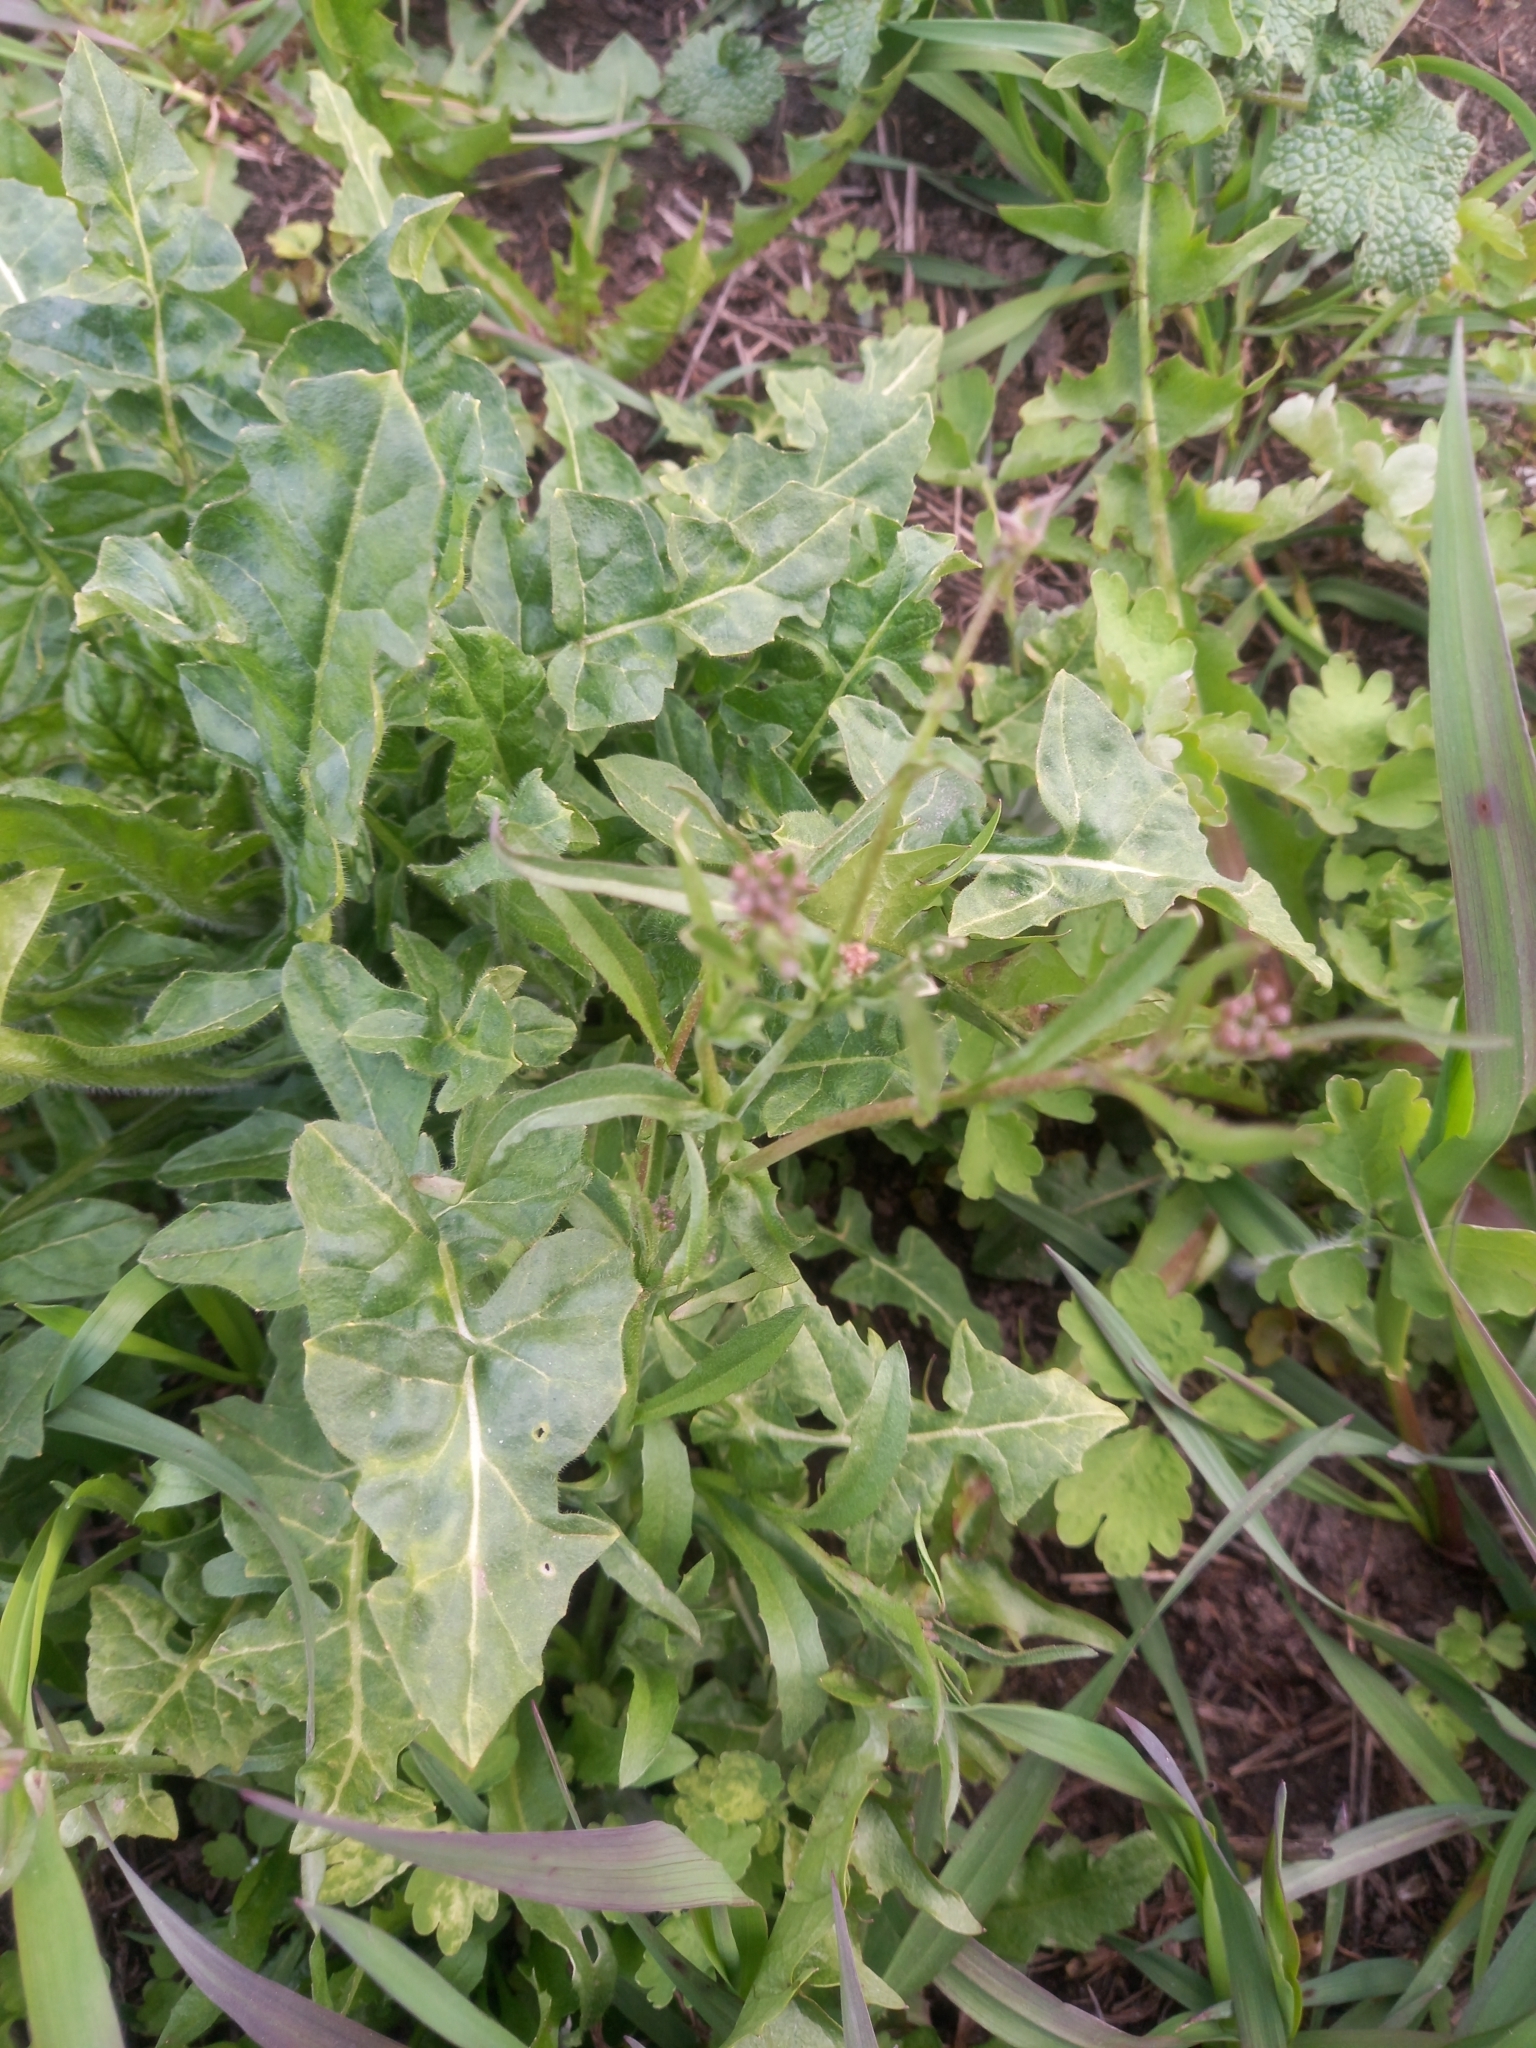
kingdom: Plantae
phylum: Tracheophyta
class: Magnoliopsida
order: Brassicales
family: Brassicaceae
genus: Capsella
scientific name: Capsella bursa-pastoris
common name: Shepherd's purse
